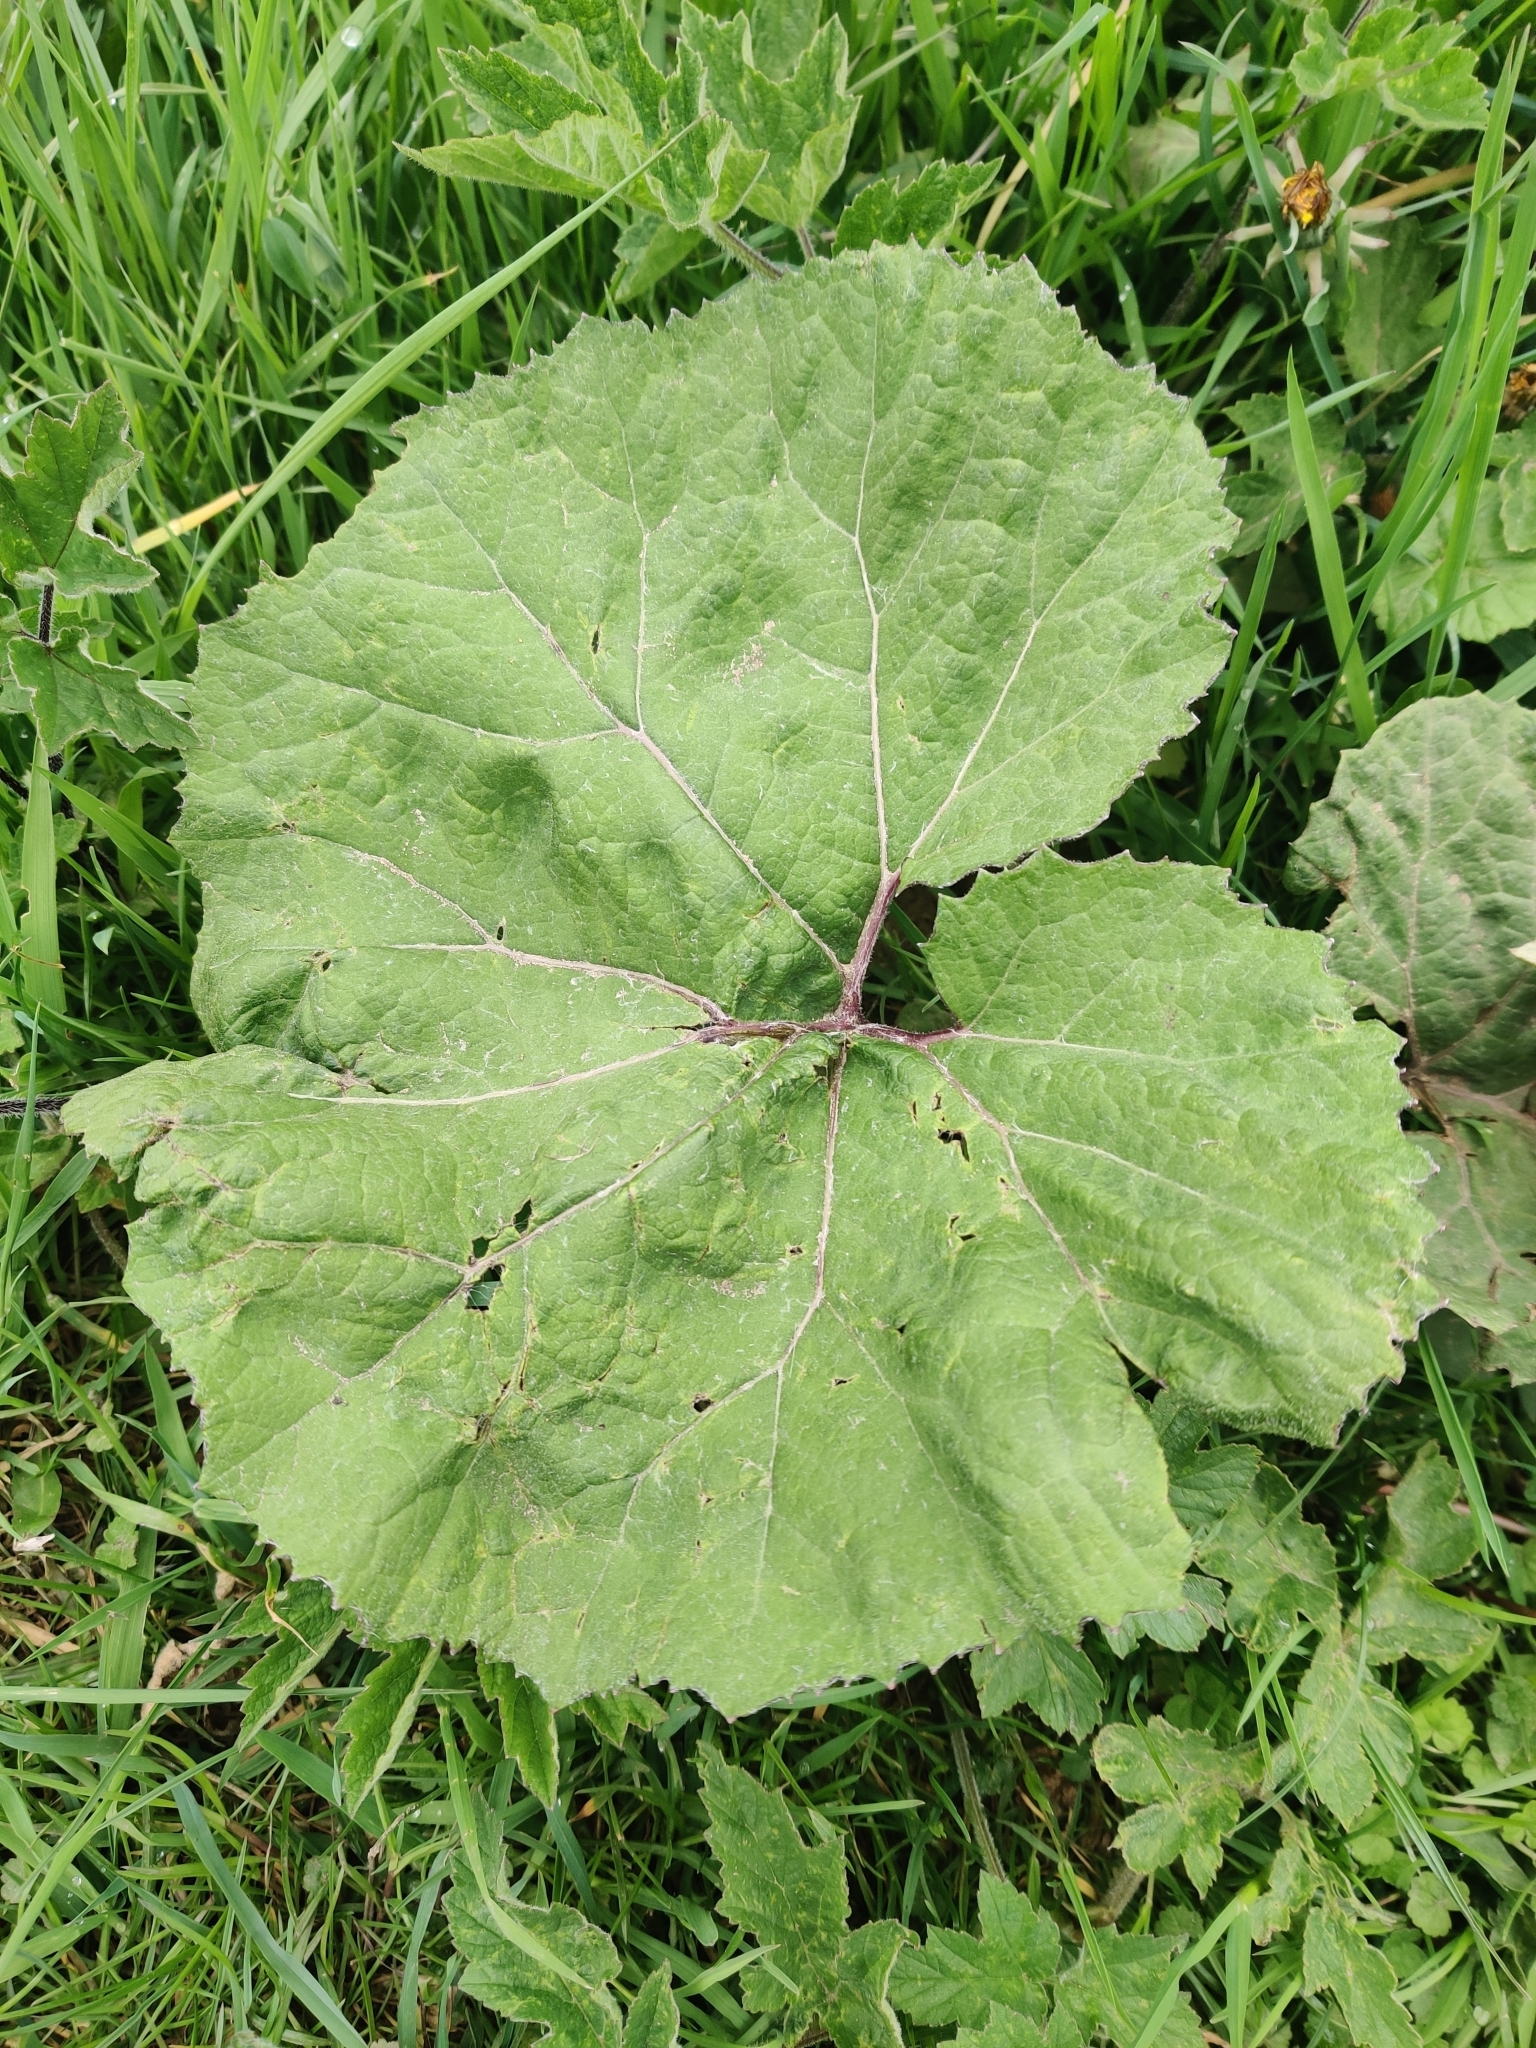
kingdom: Plantae
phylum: Tracheophyta
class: Magnoliopsida
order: Asterales
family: Asteraceae
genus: Petasites
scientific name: Petasites hybridus
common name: Butterbur
